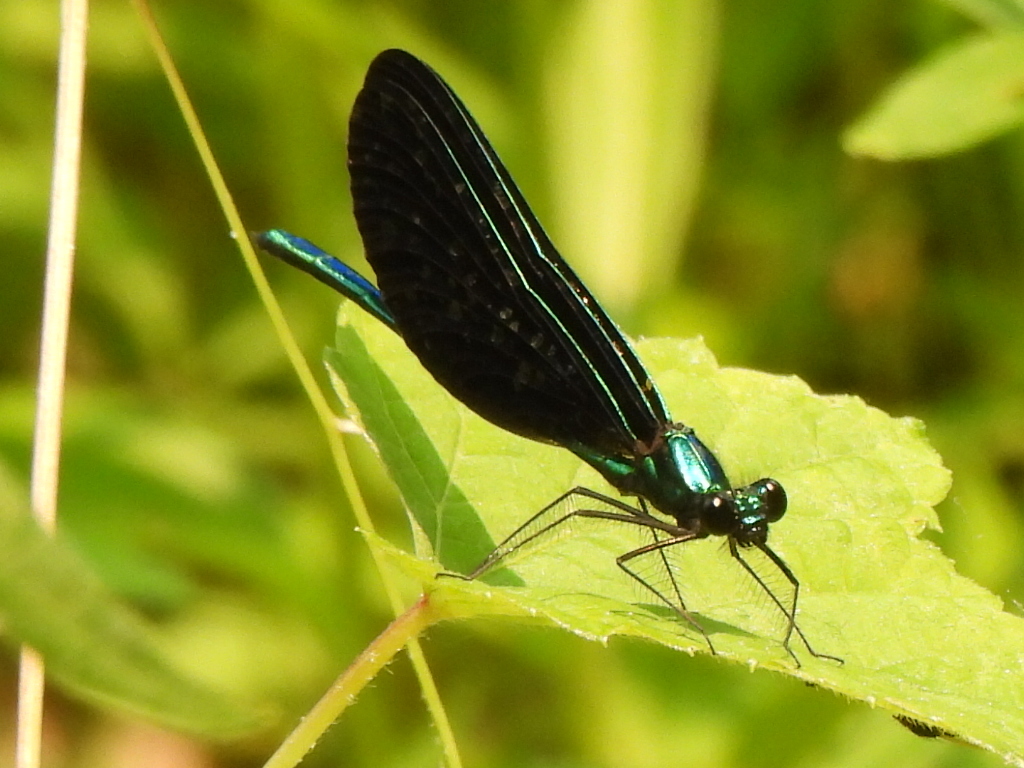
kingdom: Animalia
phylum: Arthropoda
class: Insecta
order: Odonata
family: Calopterygidae
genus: Calopteryx
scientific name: Calopteryx maculata
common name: Ebony jewelwing
